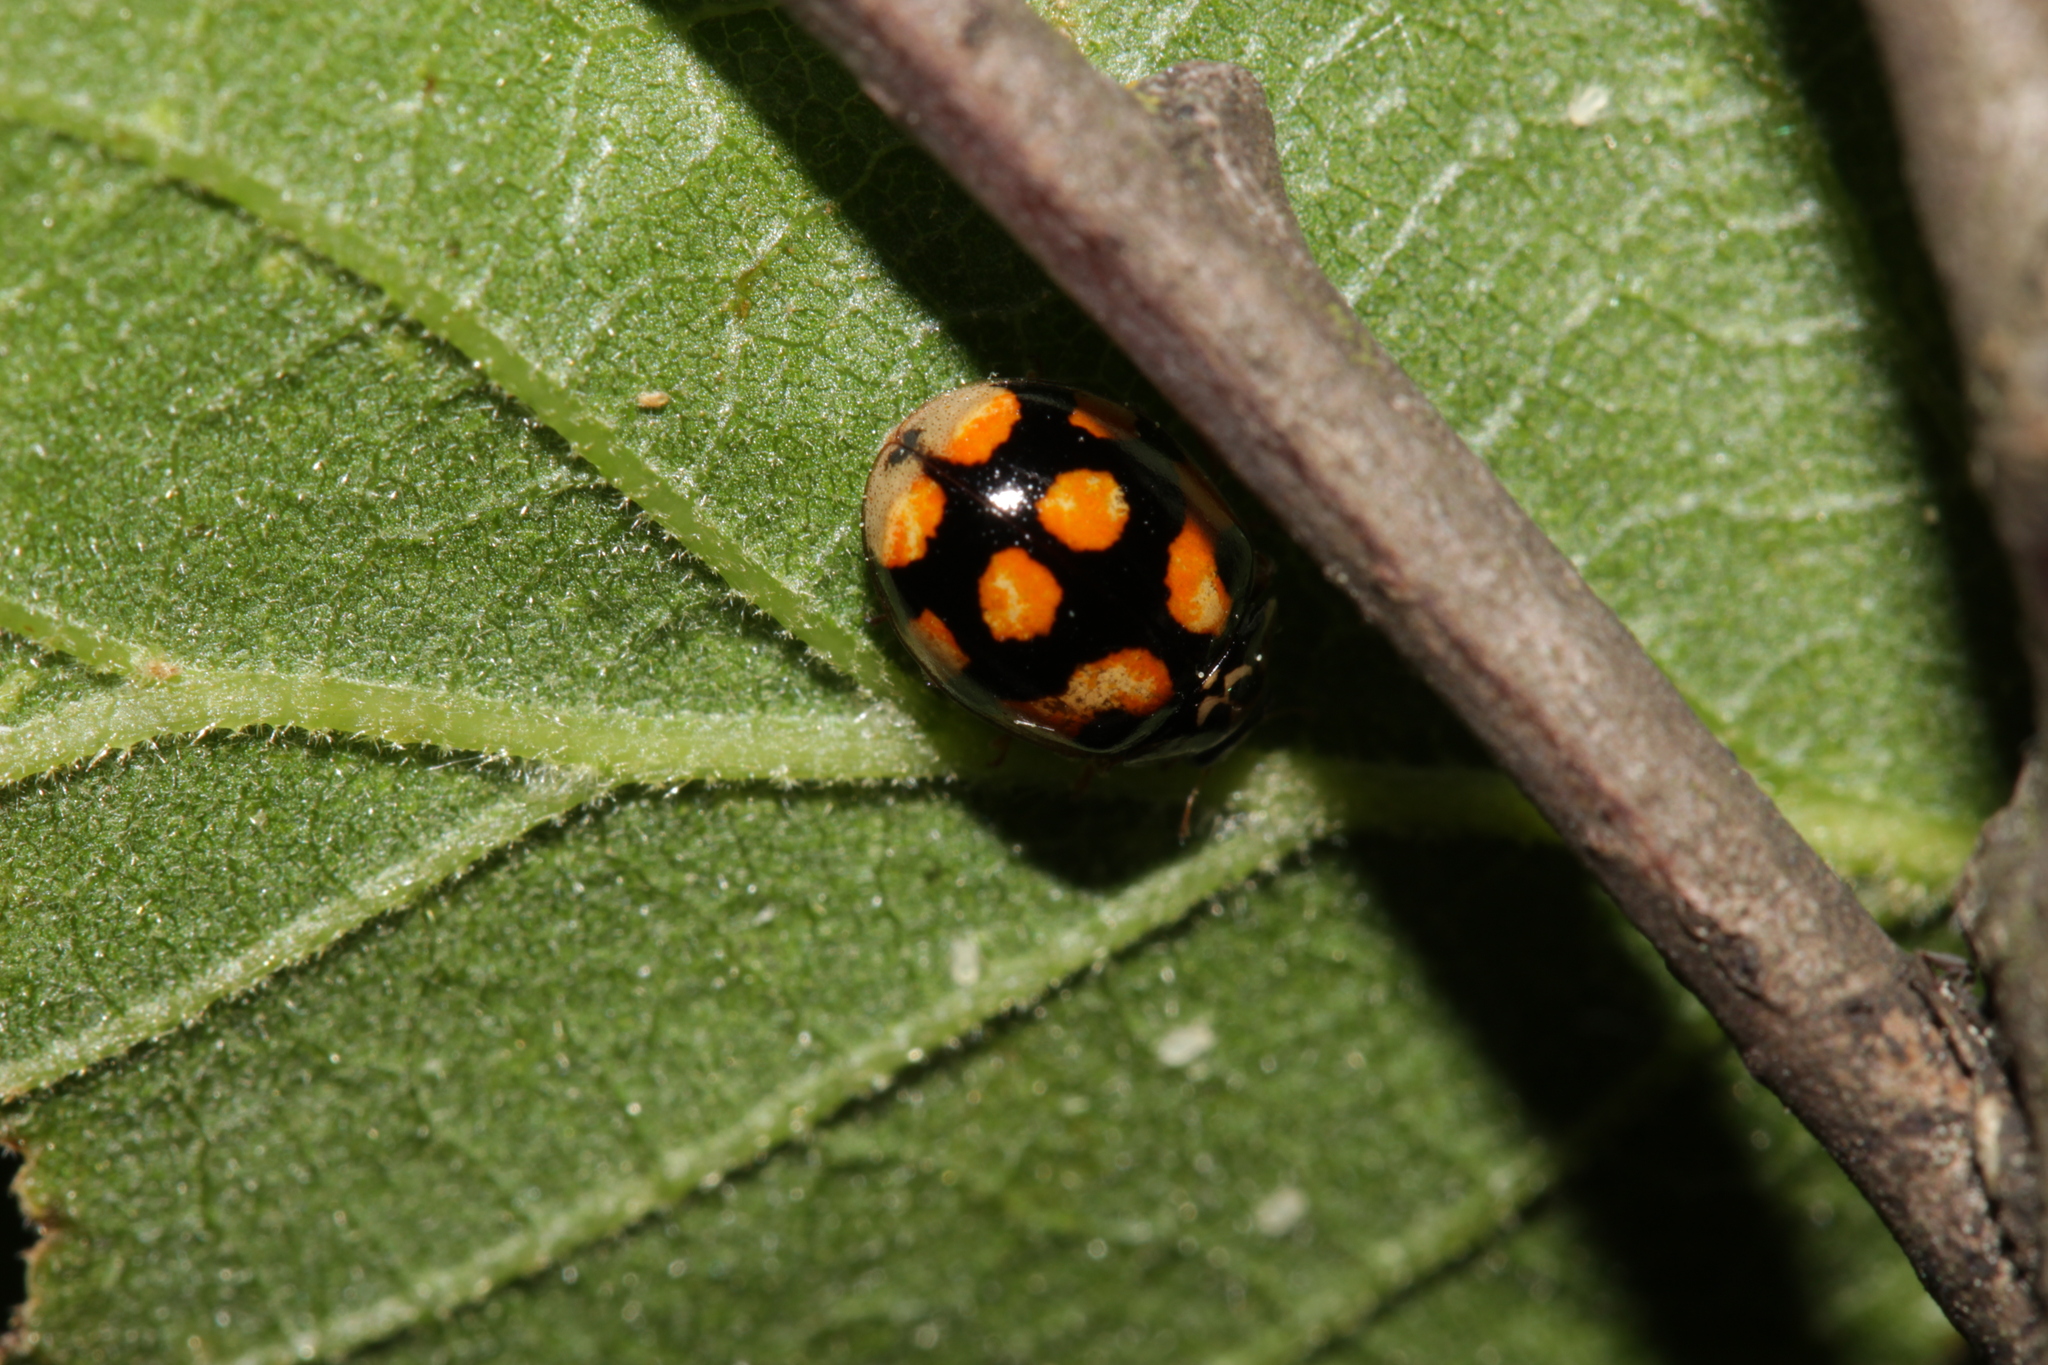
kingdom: Animalia
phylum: Arthropoda
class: Insecta
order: Coleoptera
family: Coccinellidae
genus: Adalia
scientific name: Adalia decempunctata
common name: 10-spot ladybird
